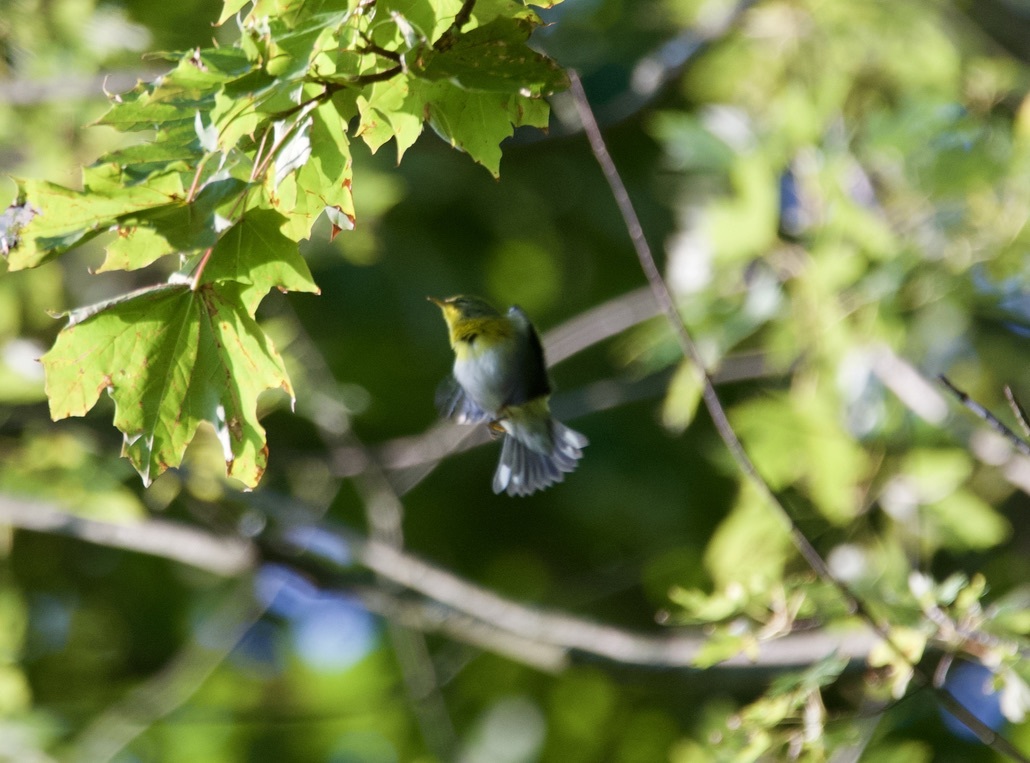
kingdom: Animalia
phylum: Chordata
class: Aves
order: Passeriformes
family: Parulidae
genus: Setophaga
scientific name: Setophaga americana
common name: Northern parula
